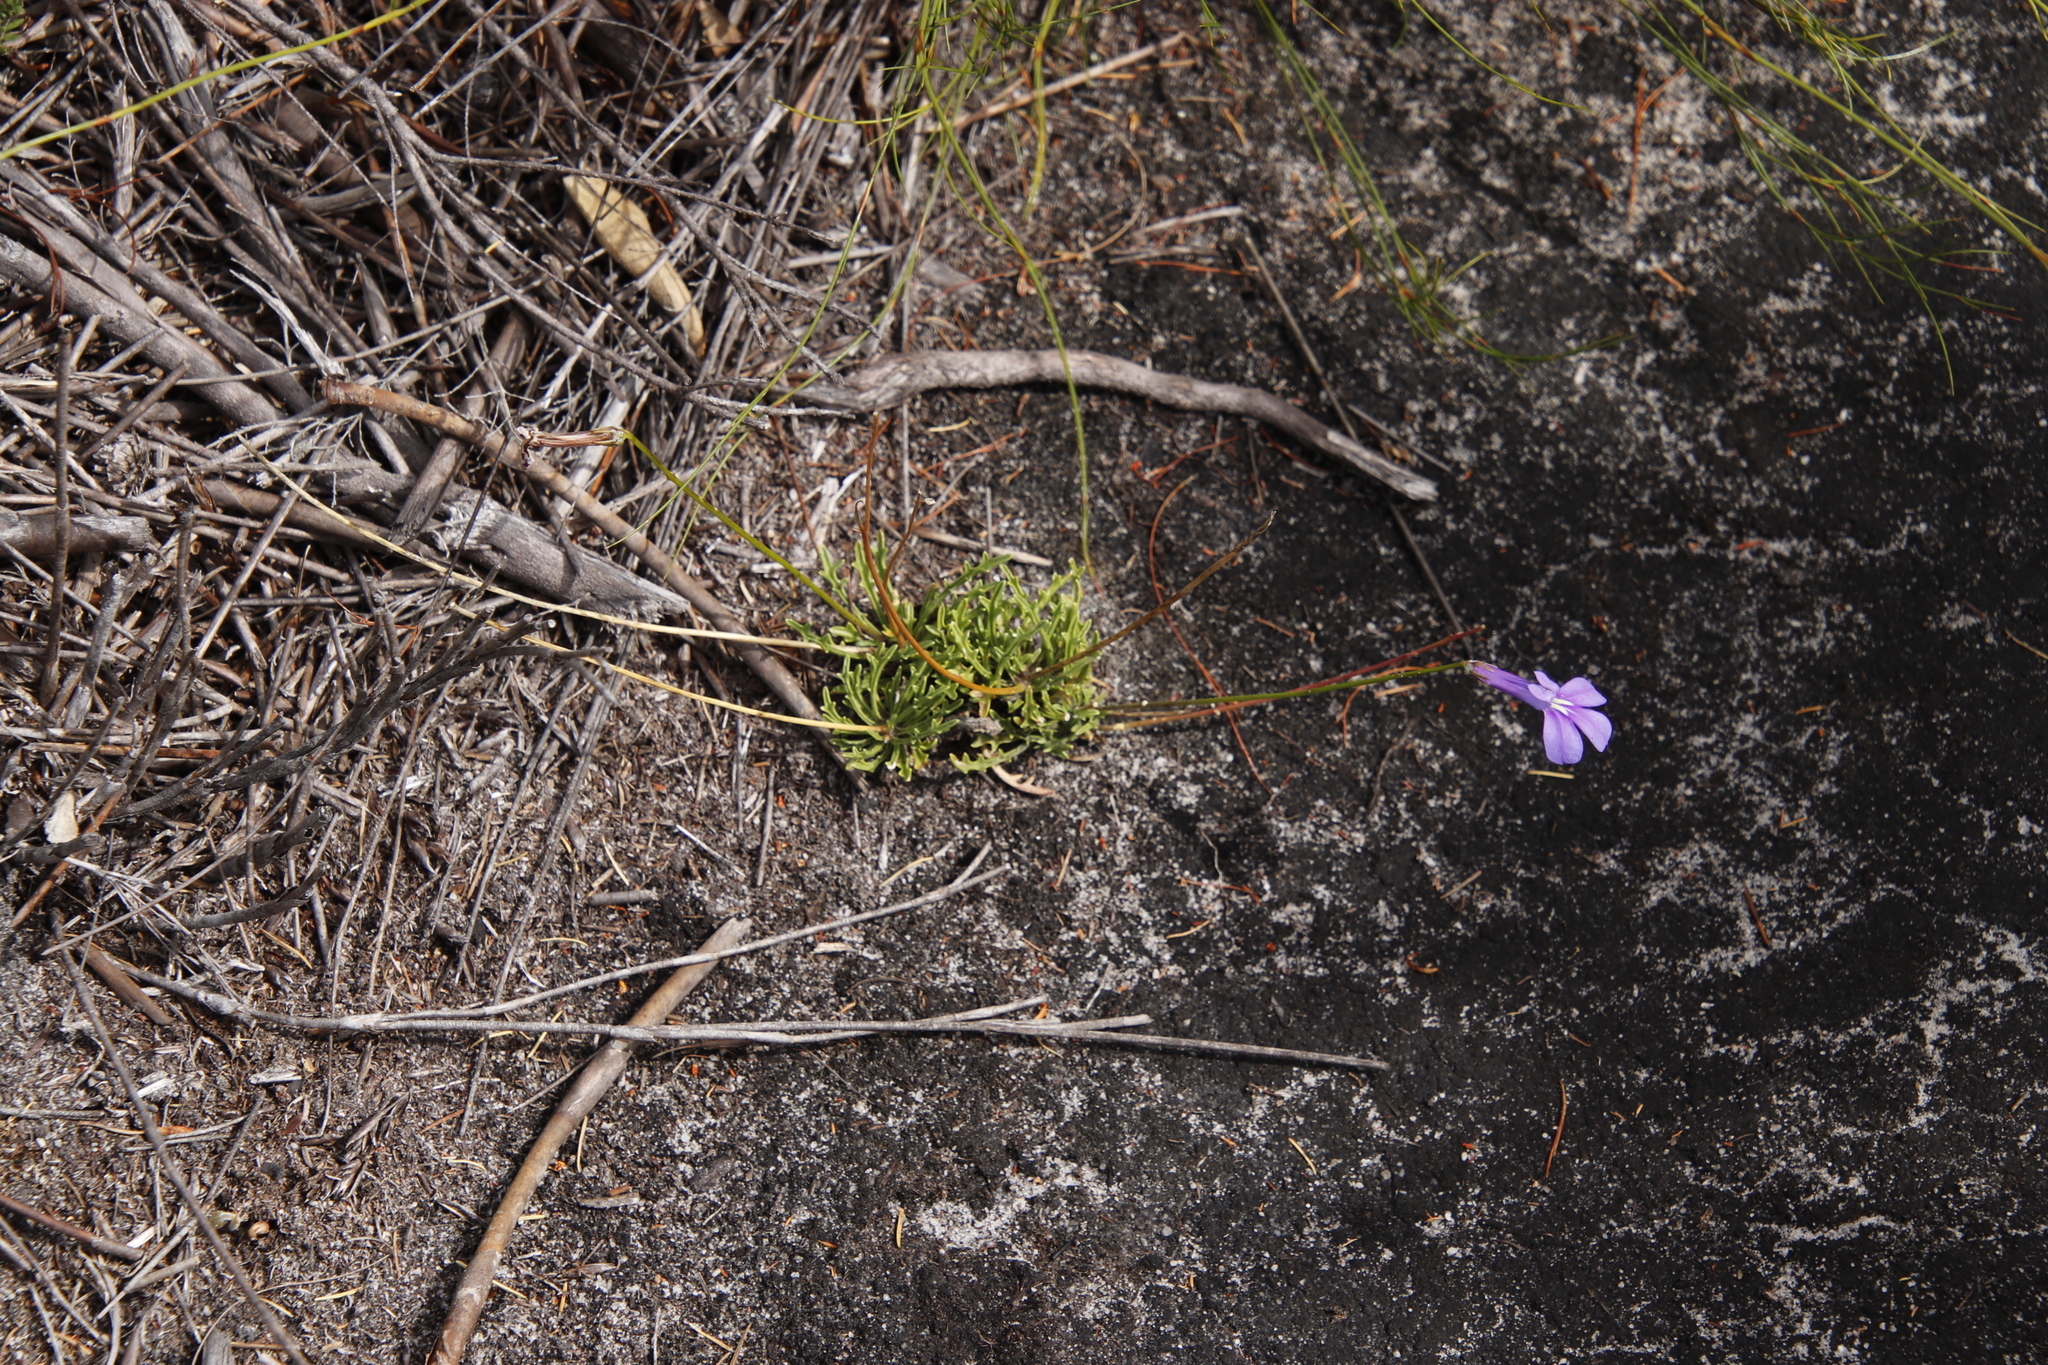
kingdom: Plantae
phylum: Tracheophyta
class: Magnoliopsida
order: Asterales
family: Campanulaceae
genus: Lobelia
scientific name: Lobelia coronopifolia
